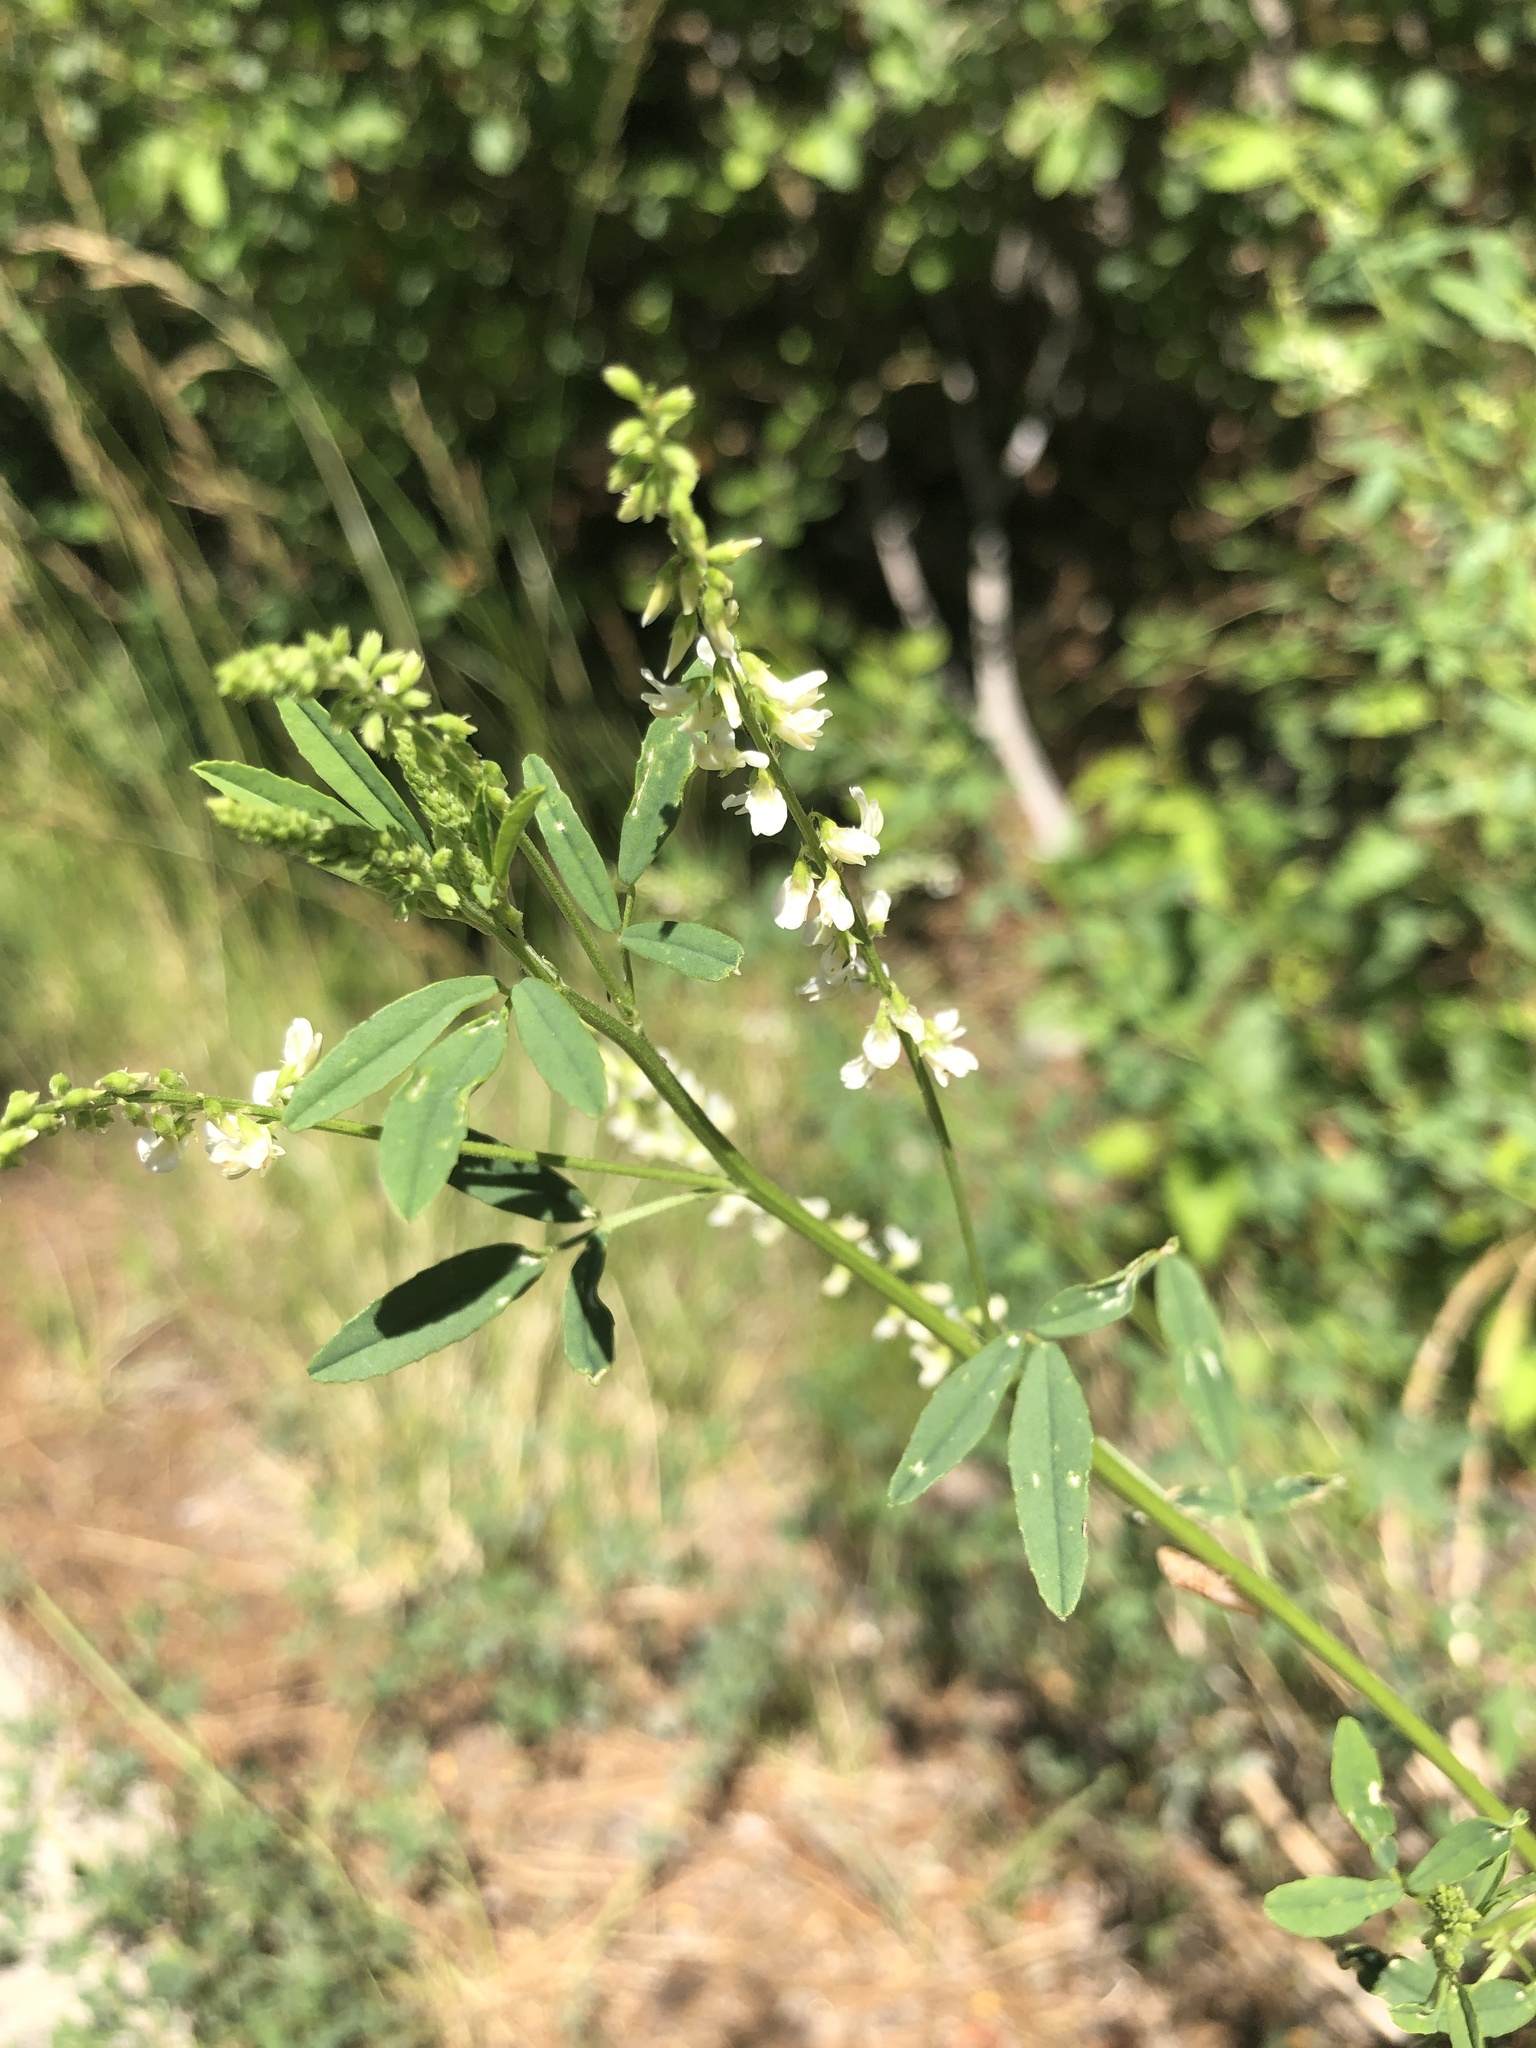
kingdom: Plantae
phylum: Tracheophyta
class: Magnoliopsida
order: Fabales
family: Fabaceae
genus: Melilotus
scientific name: Melilotus albus
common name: White melilot
